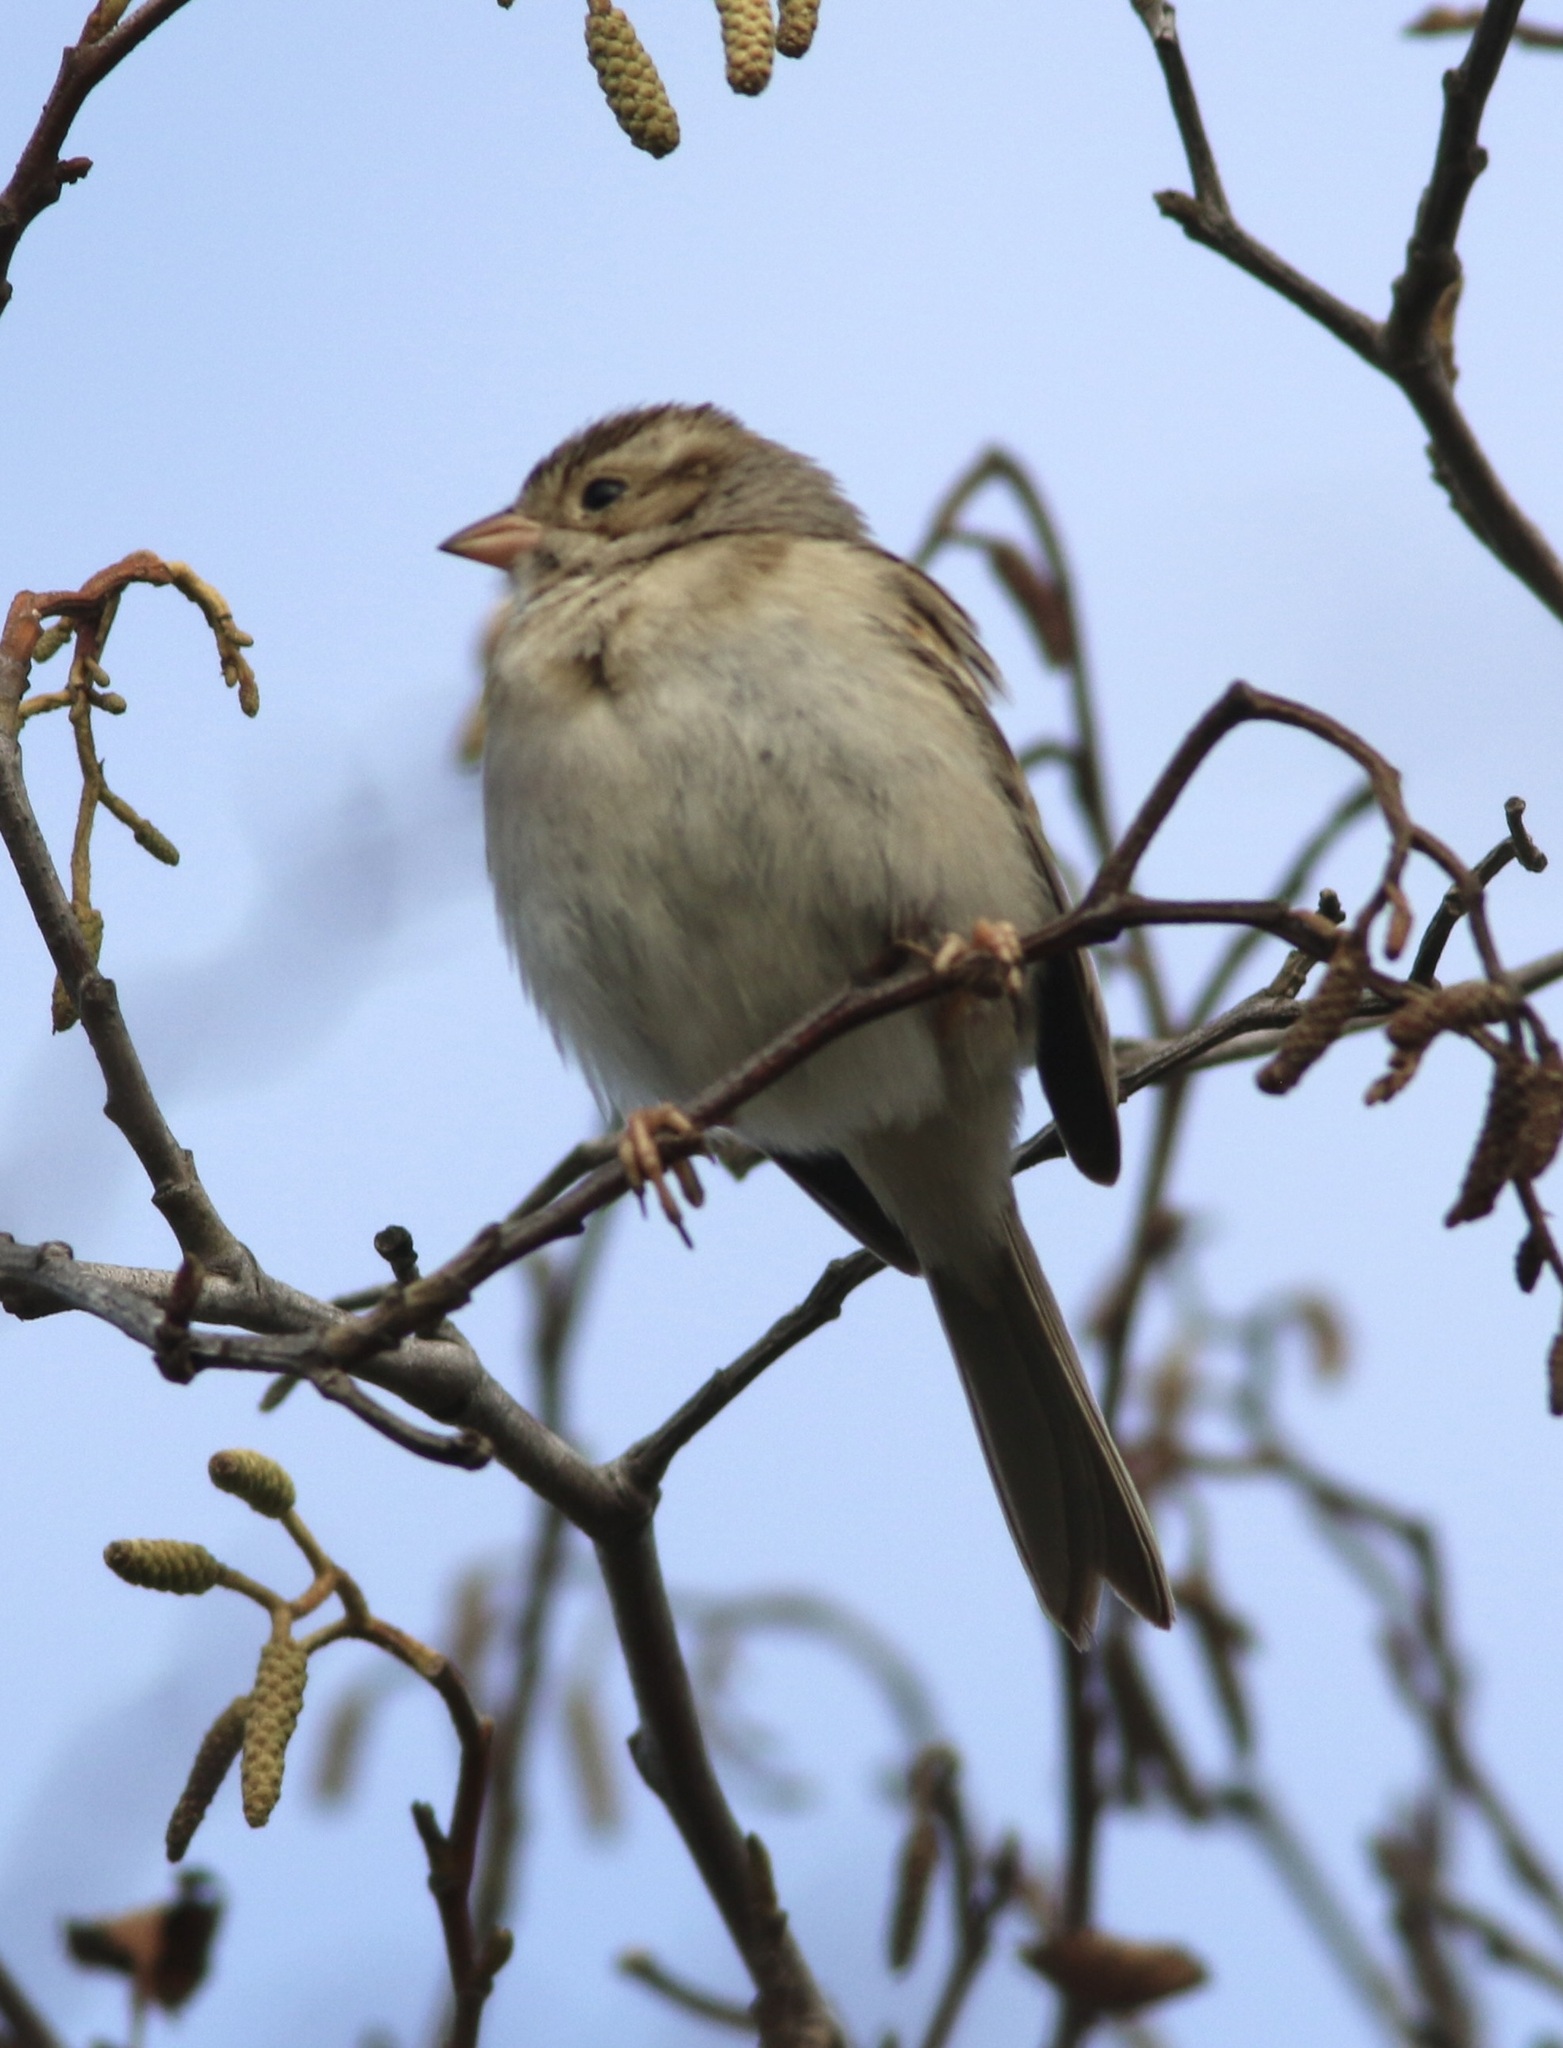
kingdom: Animalia
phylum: Chordata
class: Aves
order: Passeriformes
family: Passerellidae
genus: Spizella
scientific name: Spizella pallida
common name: Clay-colored sparrow
